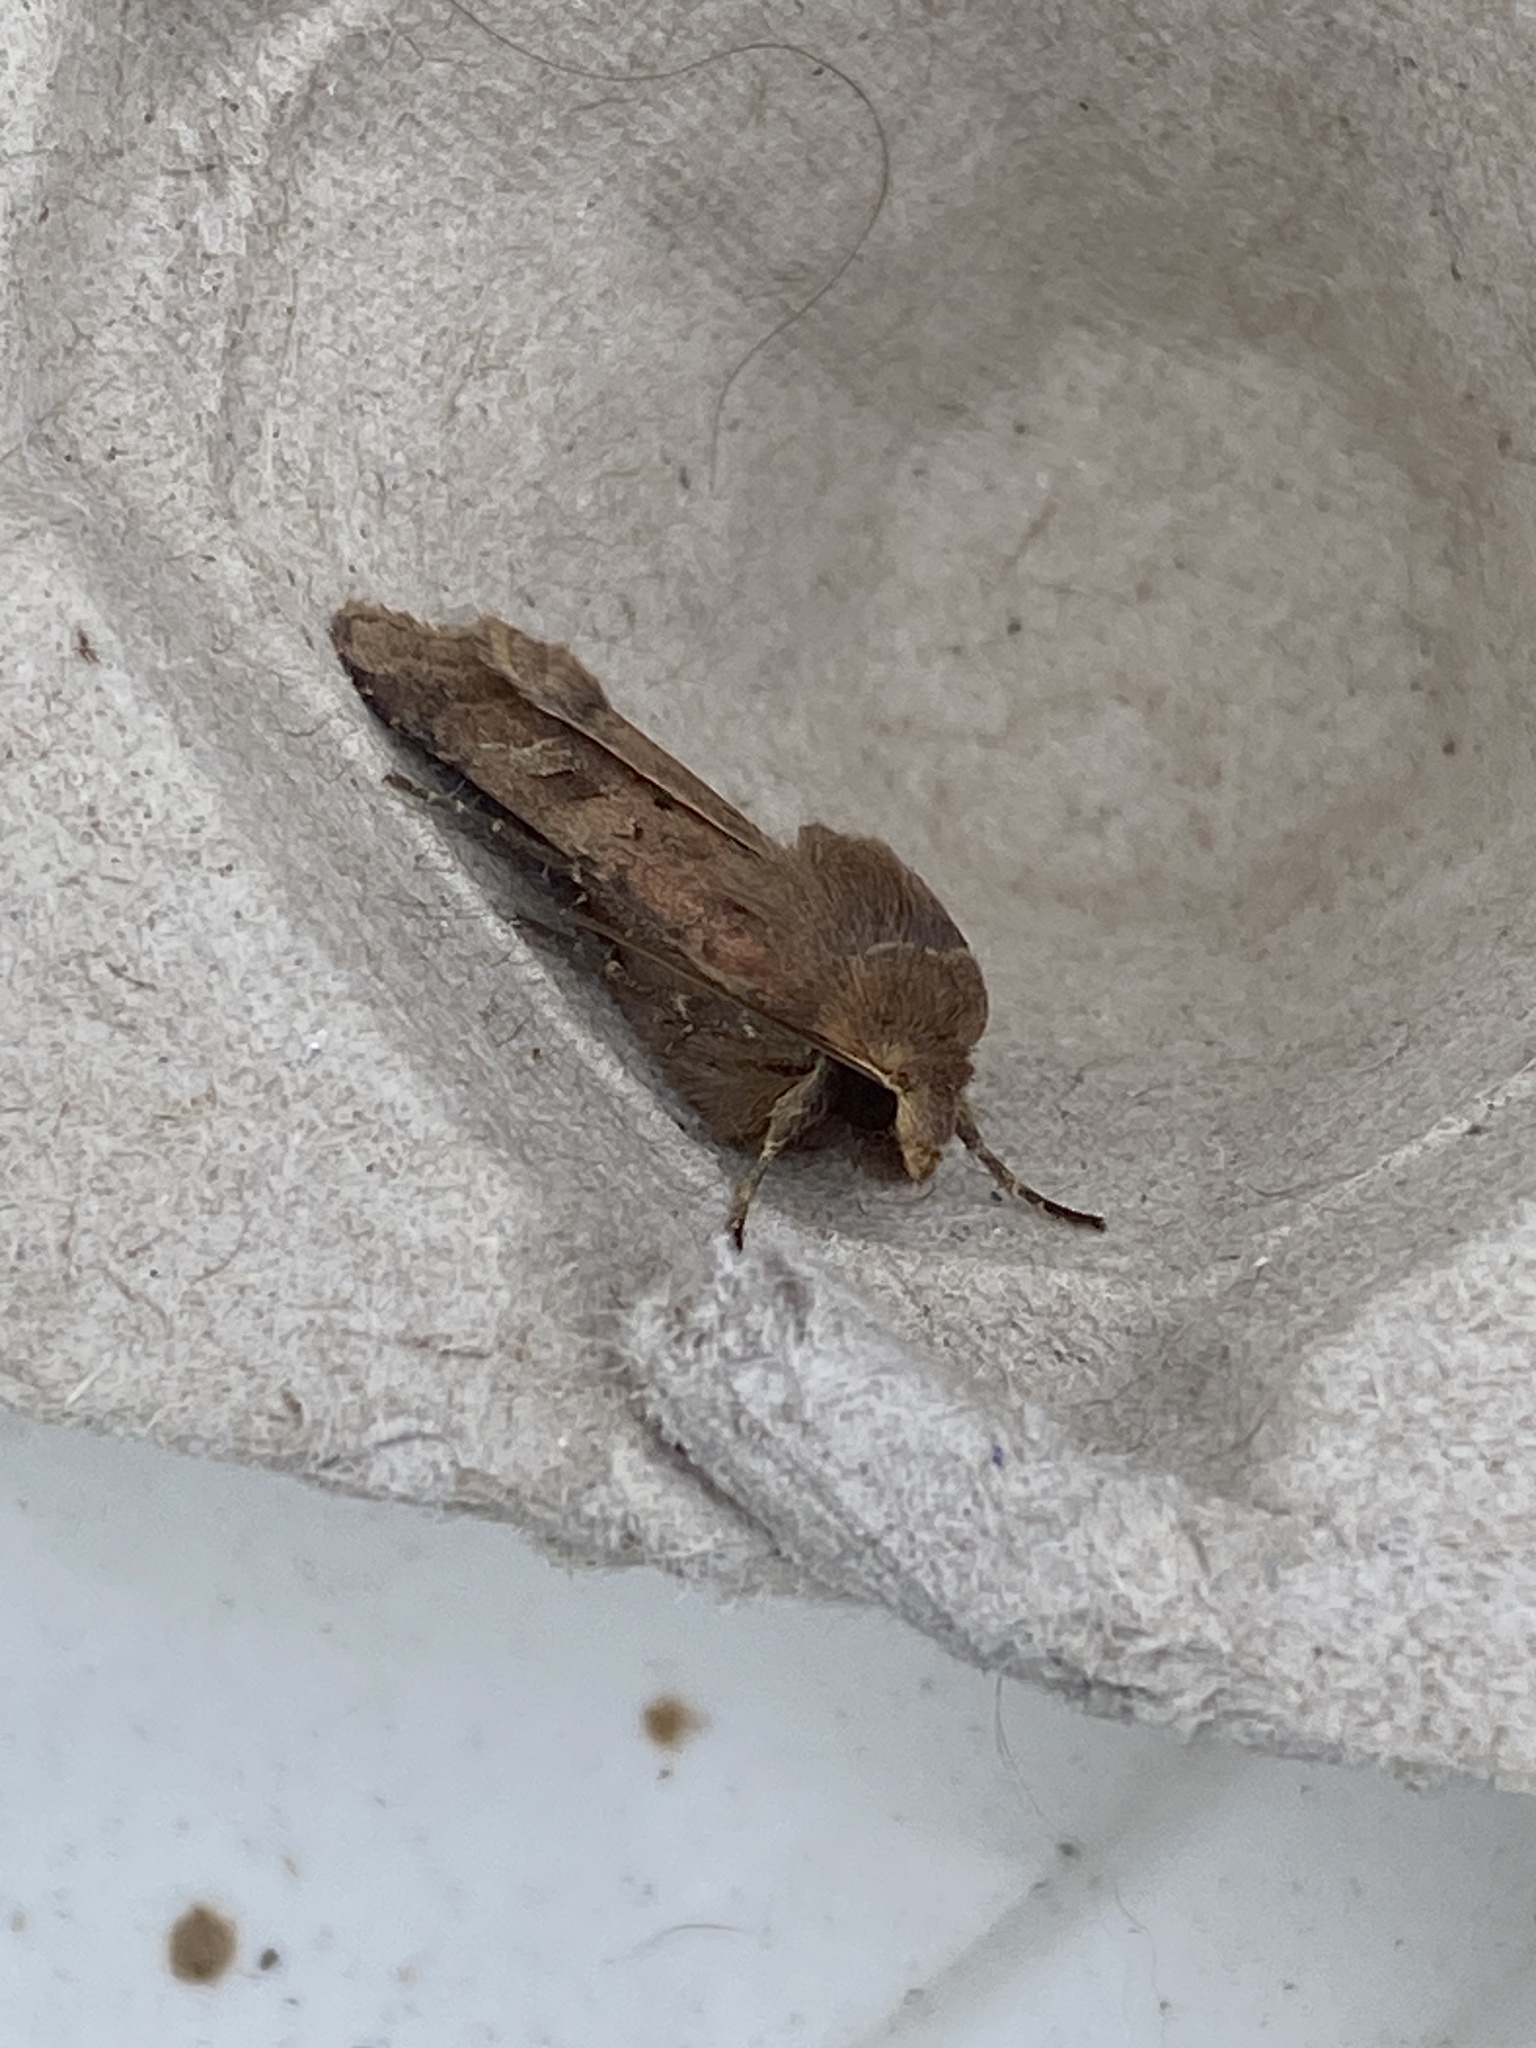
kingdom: Animalia
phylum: Arthropoda
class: Insecta
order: Lepidoptera
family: Noctuidae
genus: Diarsia
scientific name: Diarsia rubi
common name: Small square-spot
